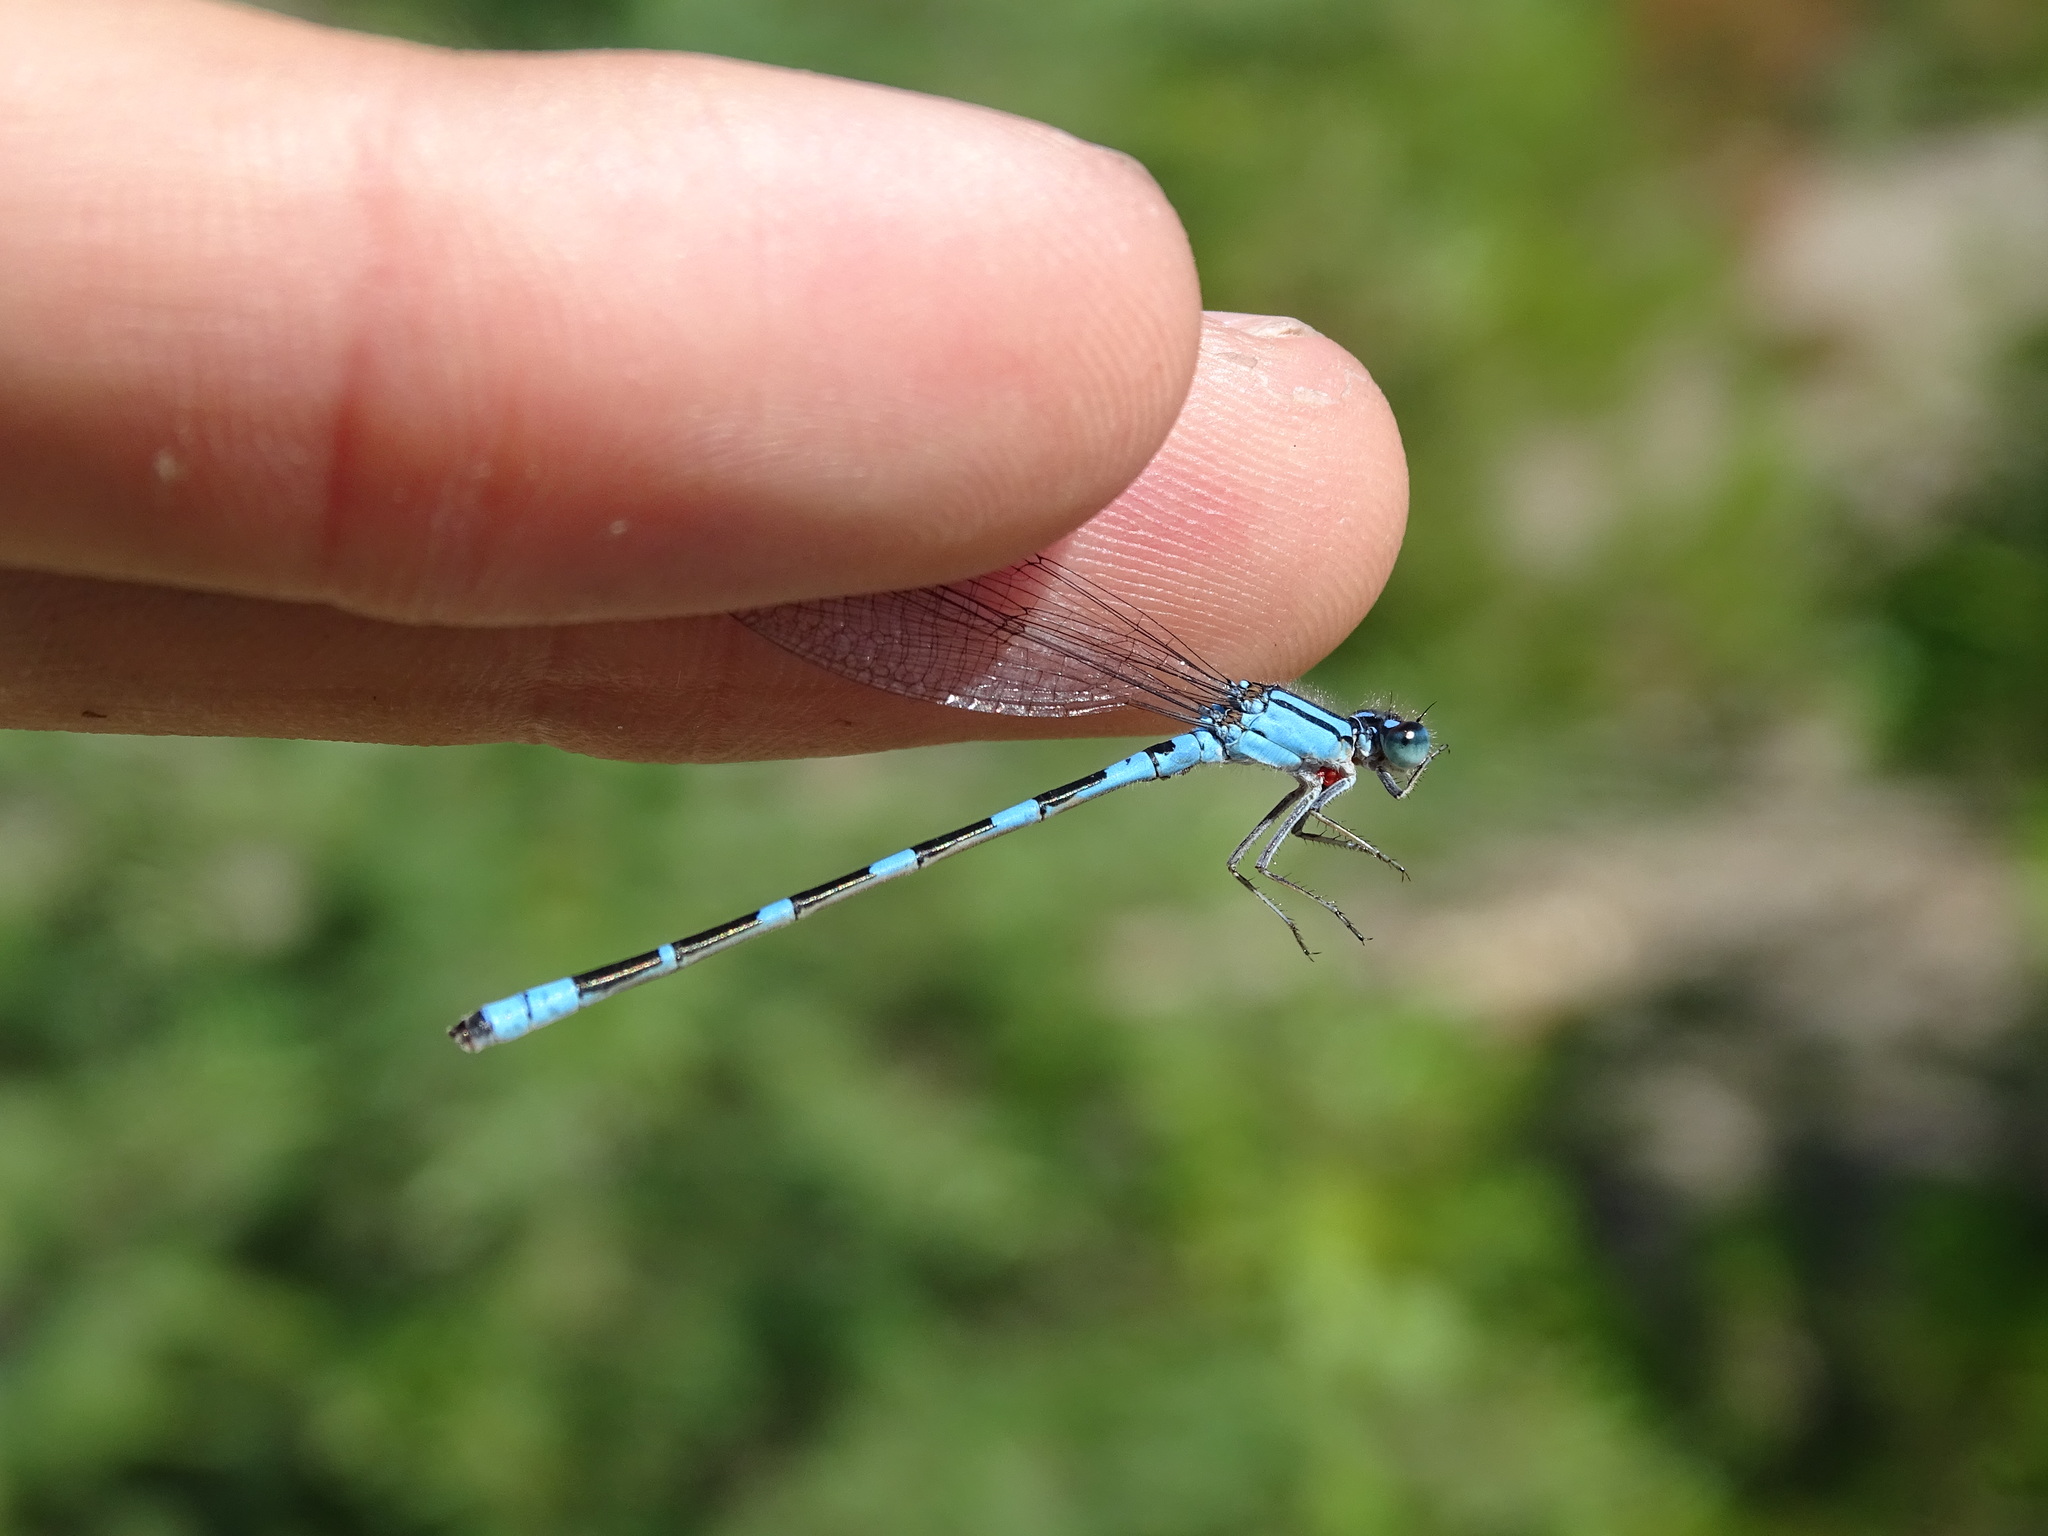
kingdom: Animalia
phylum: Arthropoda
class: Insecta
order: Odonata
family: Coenagrionidae
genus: Enallagma
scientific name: Enallagma carunculatum
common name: Tule bluet
